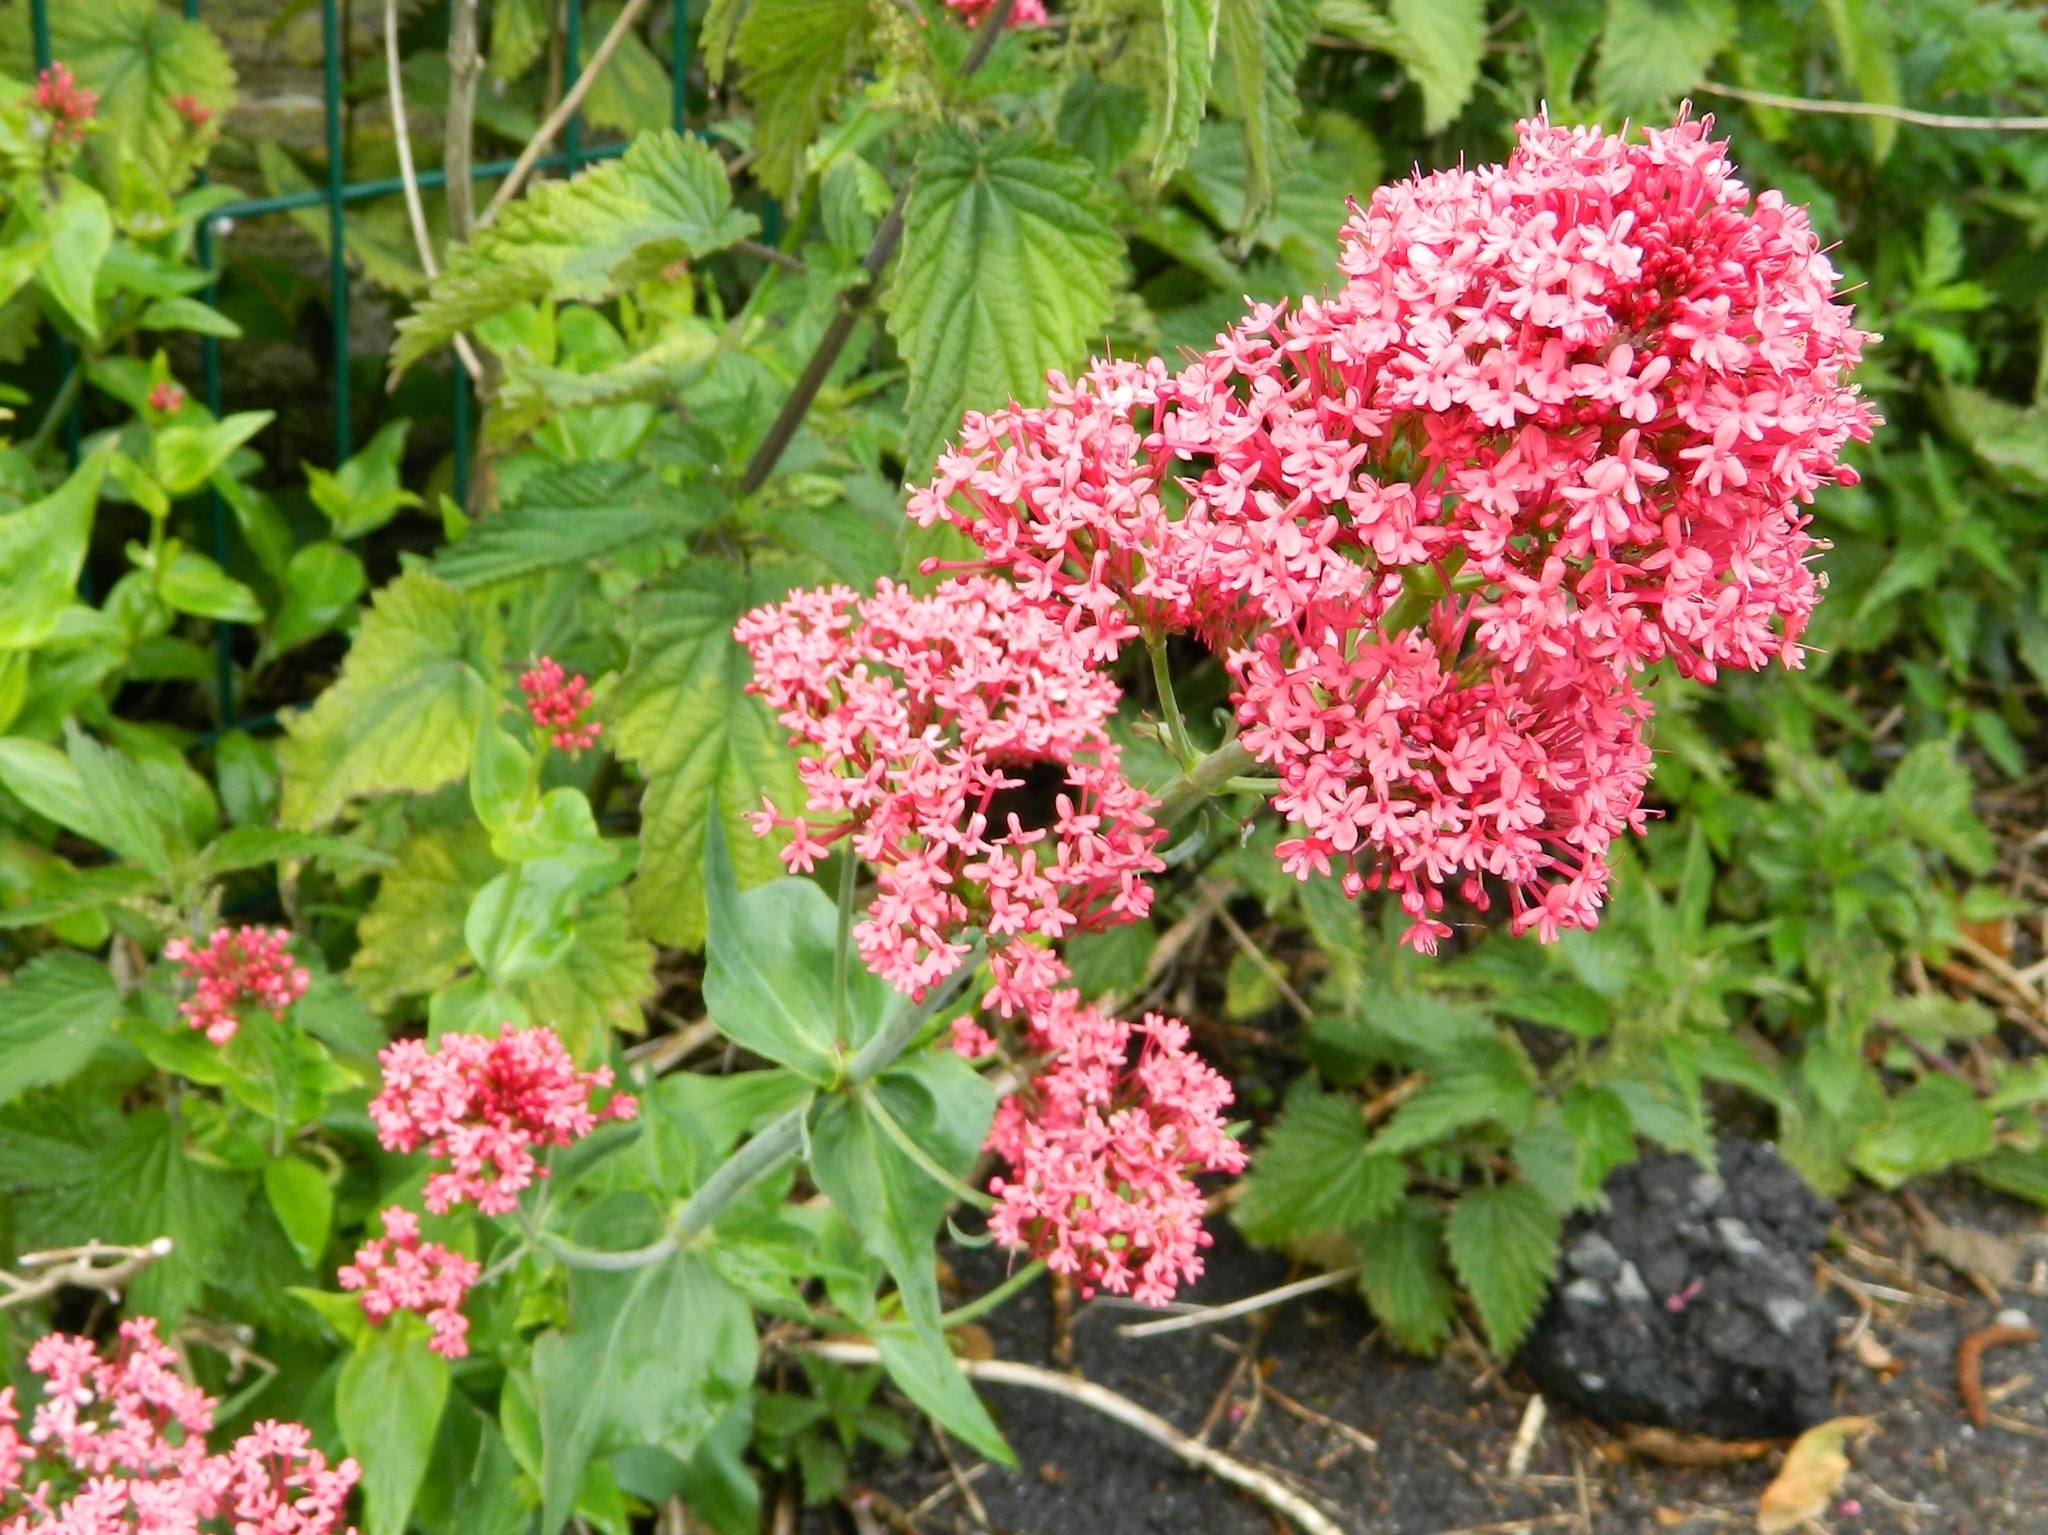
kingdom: Plantae
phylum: Tracheophyta
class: Magnoliopsida
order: Dipsacales
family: Caprifoliaceae
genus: Centranthus
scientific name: Centranthus ruber
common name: Red valerian
